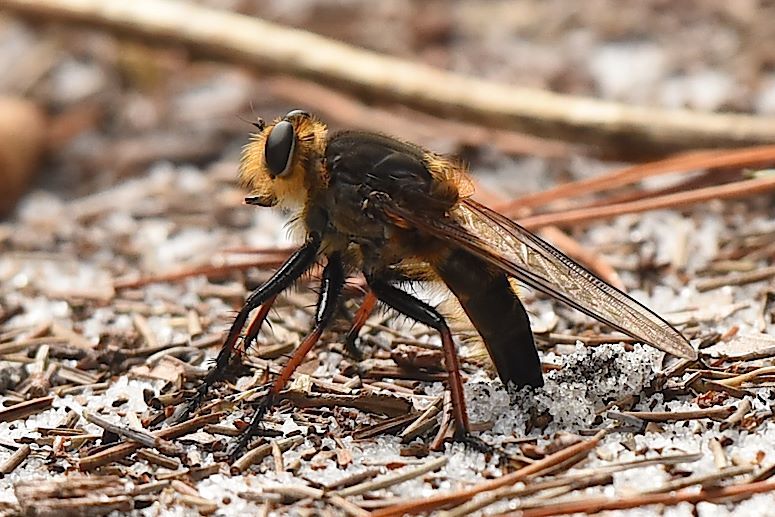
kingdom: Animalia
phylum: Arthropoda
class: Insecta
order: Diptera
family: Asilidae
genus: Proctacanthus
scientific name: Proctacanthus fulviventris
